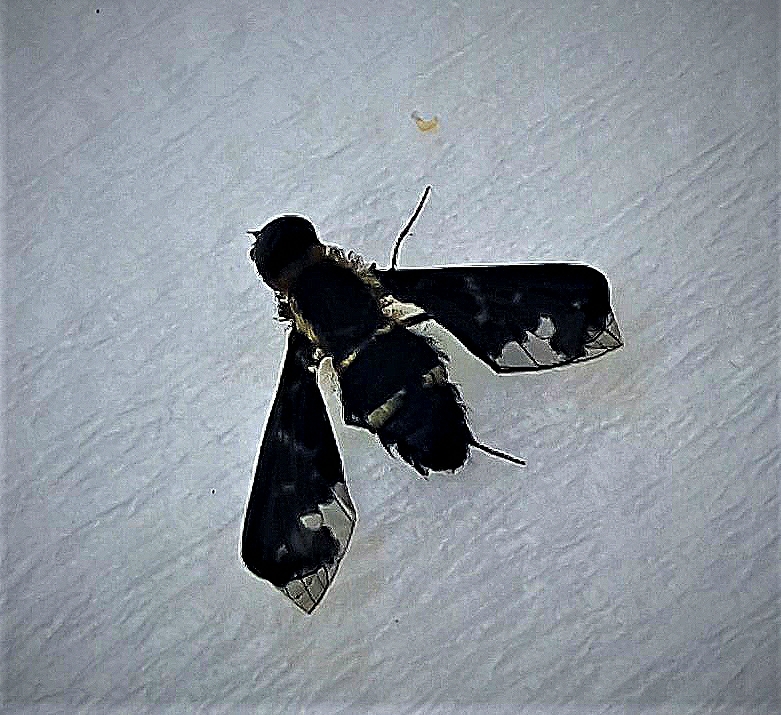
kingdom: Animalia
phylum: Arthropoda
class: Insecta
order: Diptera
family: Bombyliidae
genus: Hemipenthes
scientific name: Hemipenthes maura
